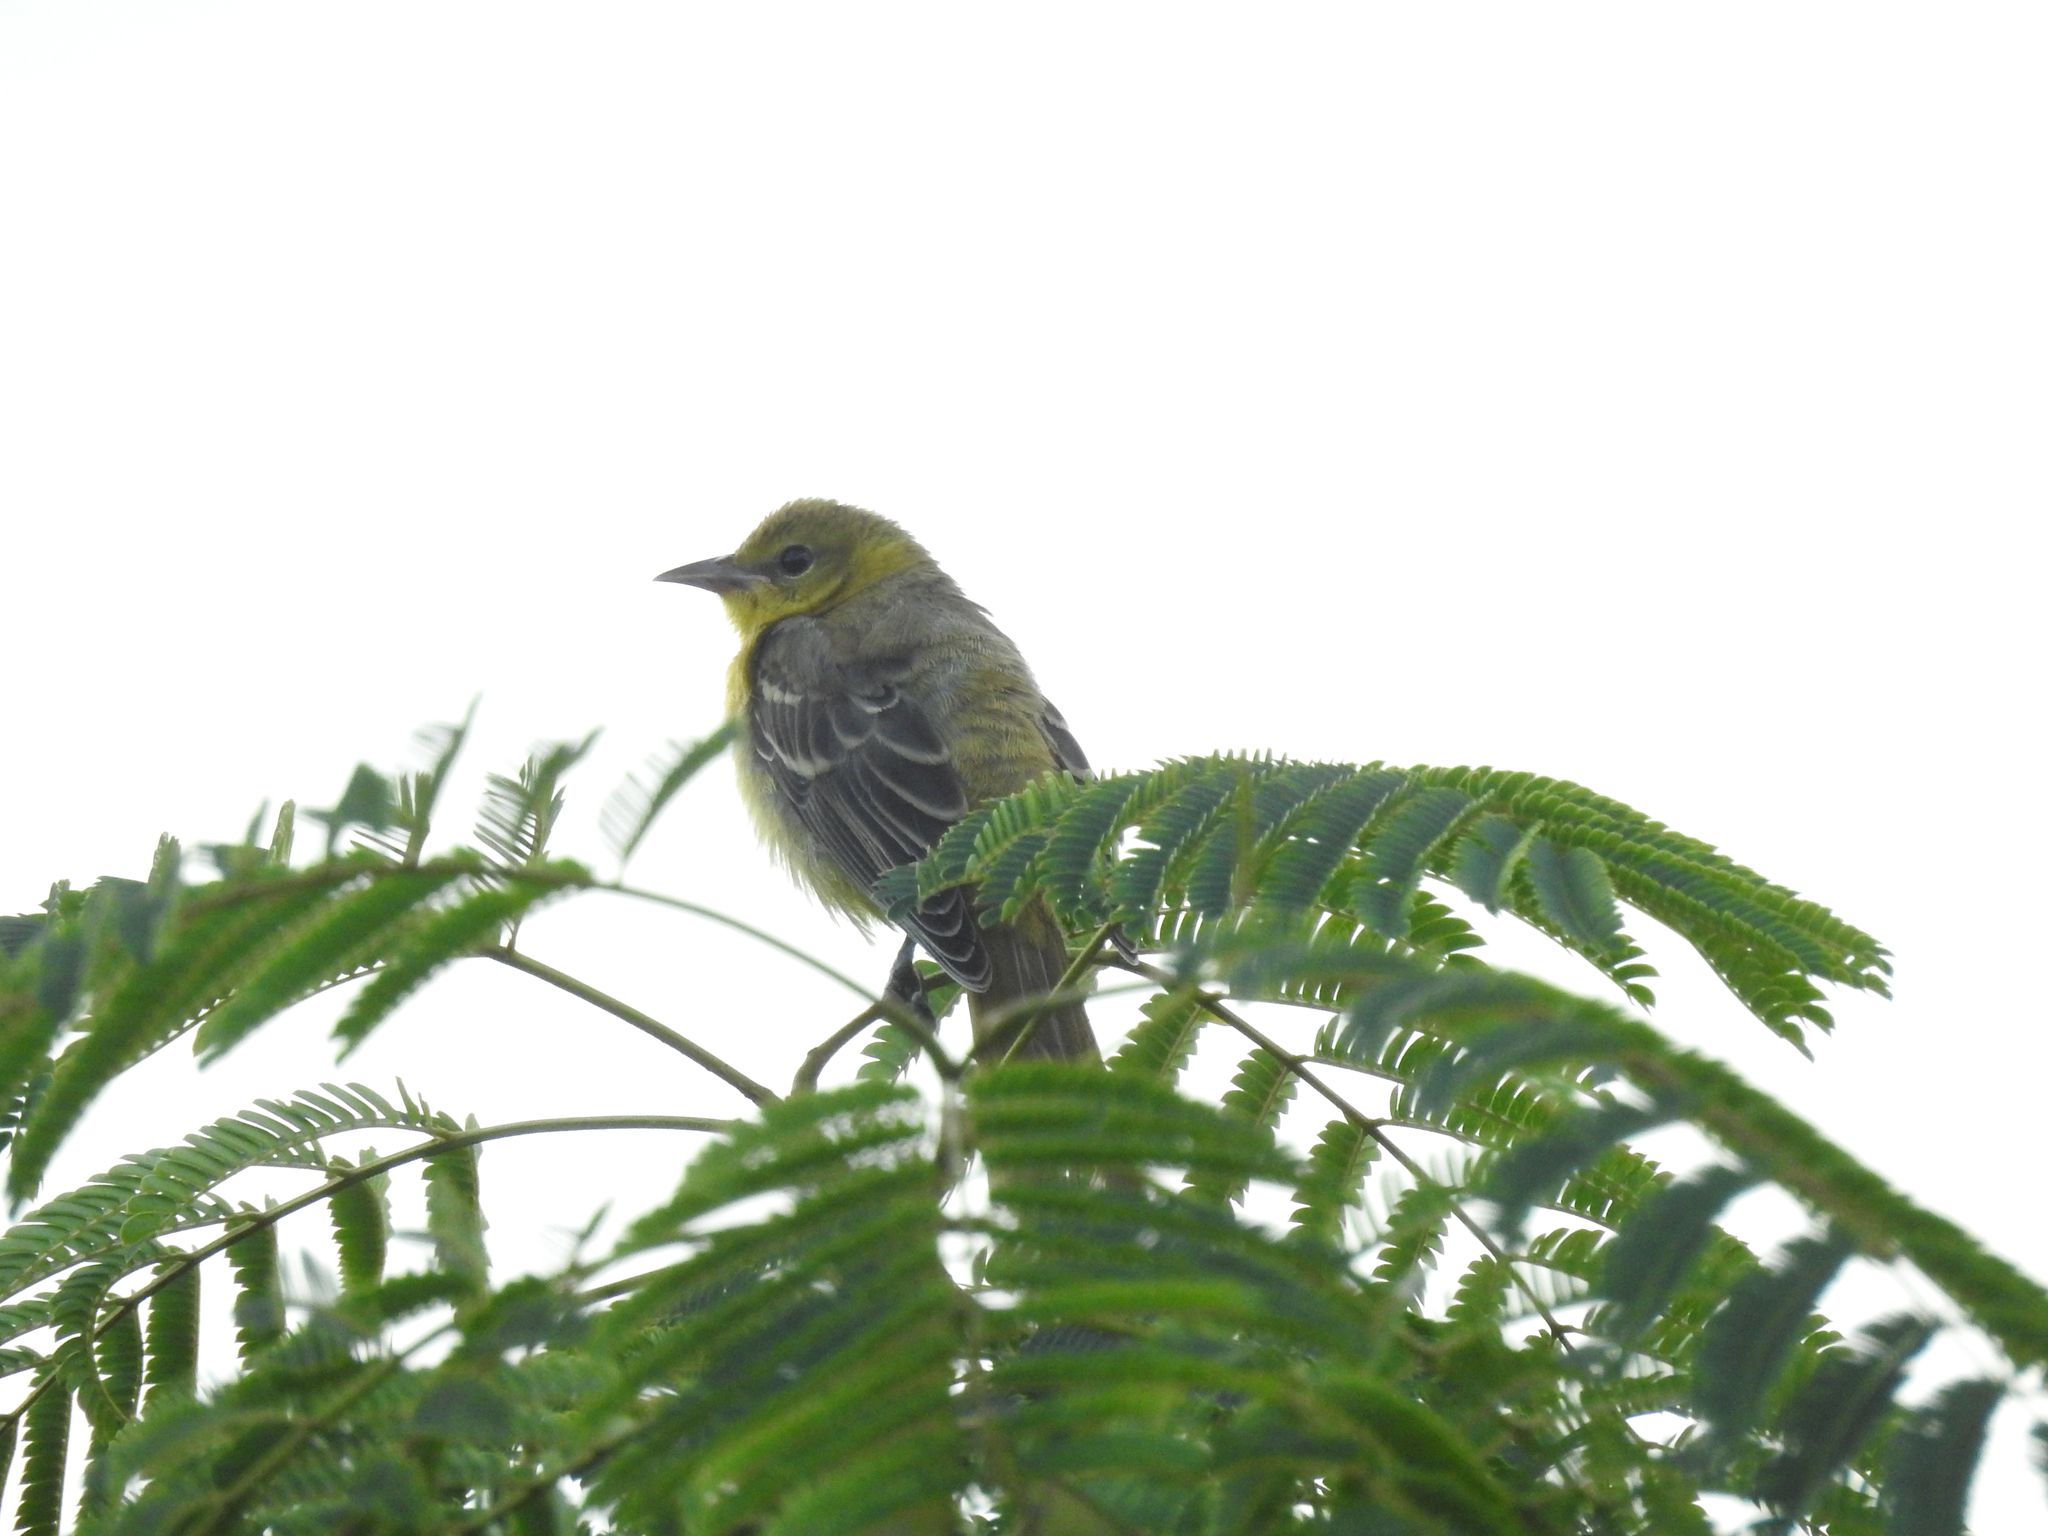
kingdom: Animalia
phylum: Chordata
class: Aves
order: Passeriformes
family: Icteridae
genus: Icterus
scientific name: Icterus spurius
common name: Orchard oriole
